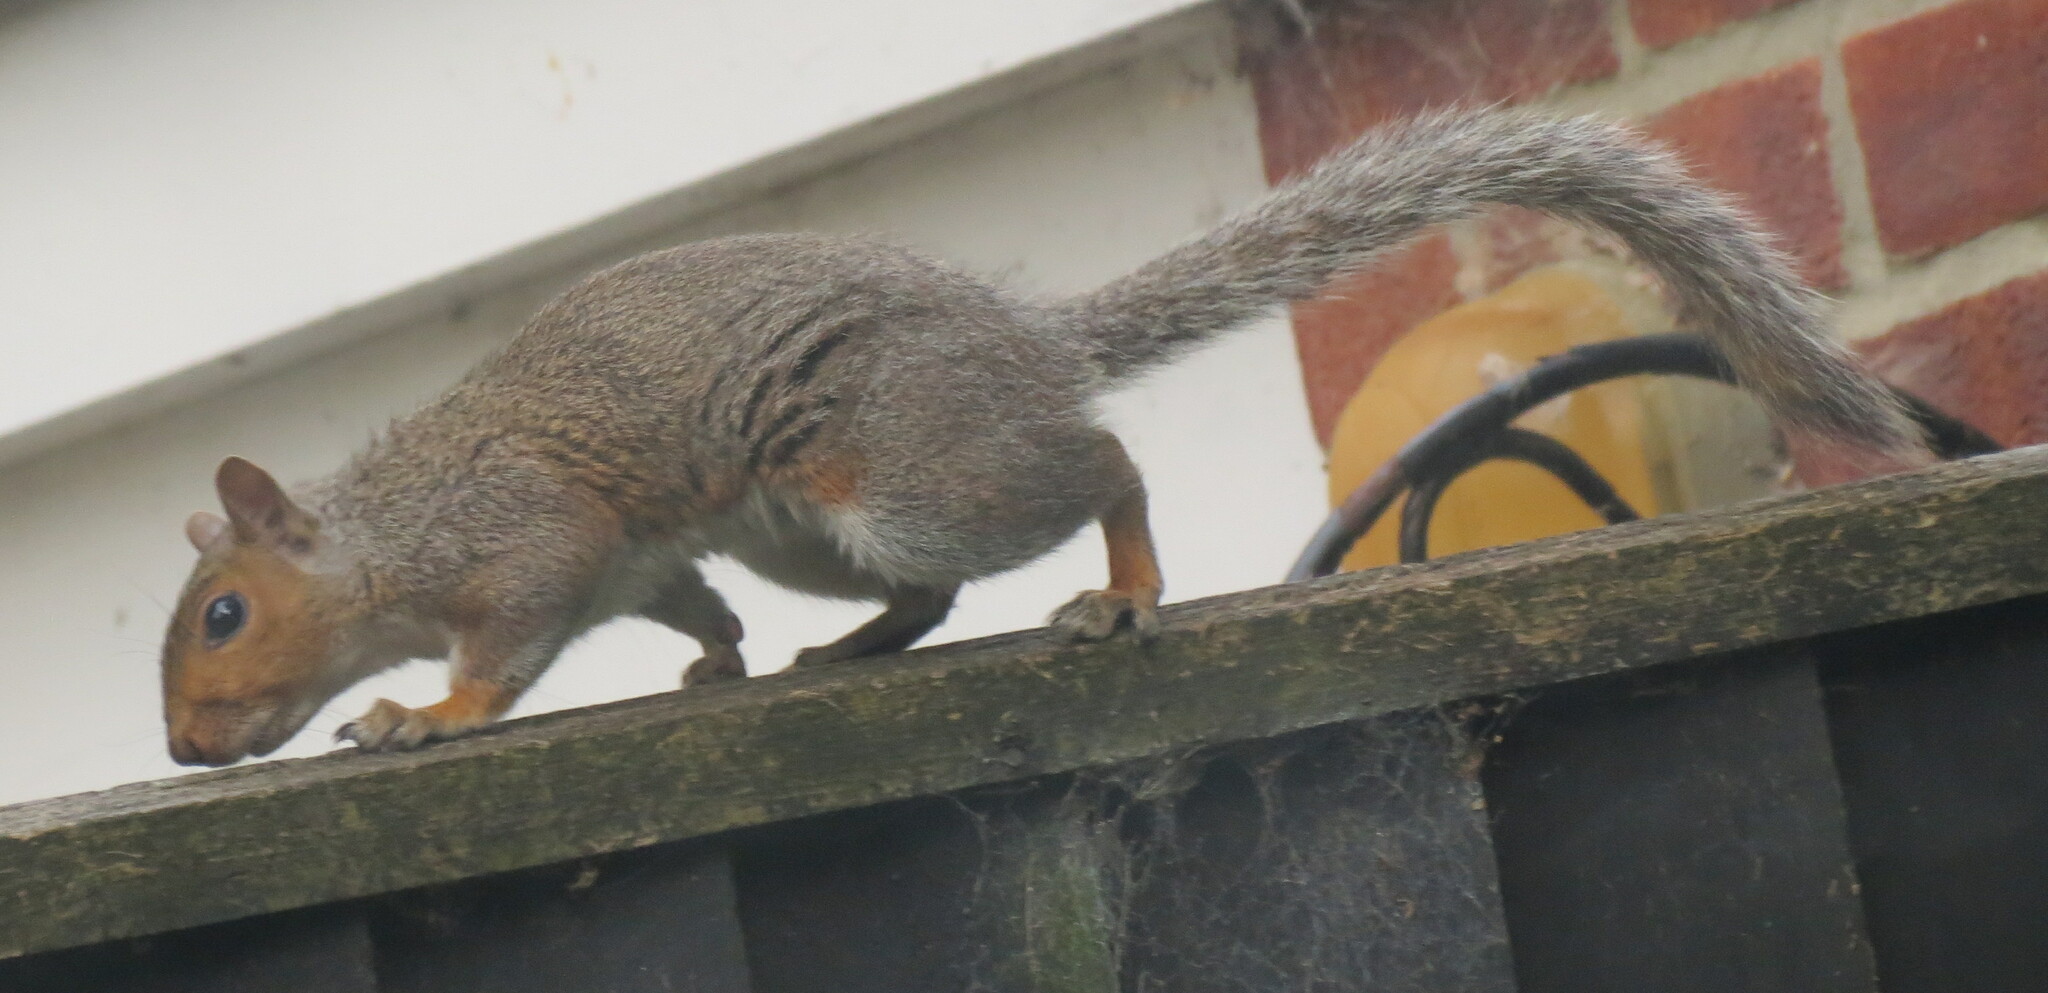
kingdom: Animalia
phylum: Chordata
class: Mammalia
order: Rodentia
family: Sciuridae
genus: Sciurus
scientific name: Sciurus carolinensis
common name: Eastern gray squirrel
